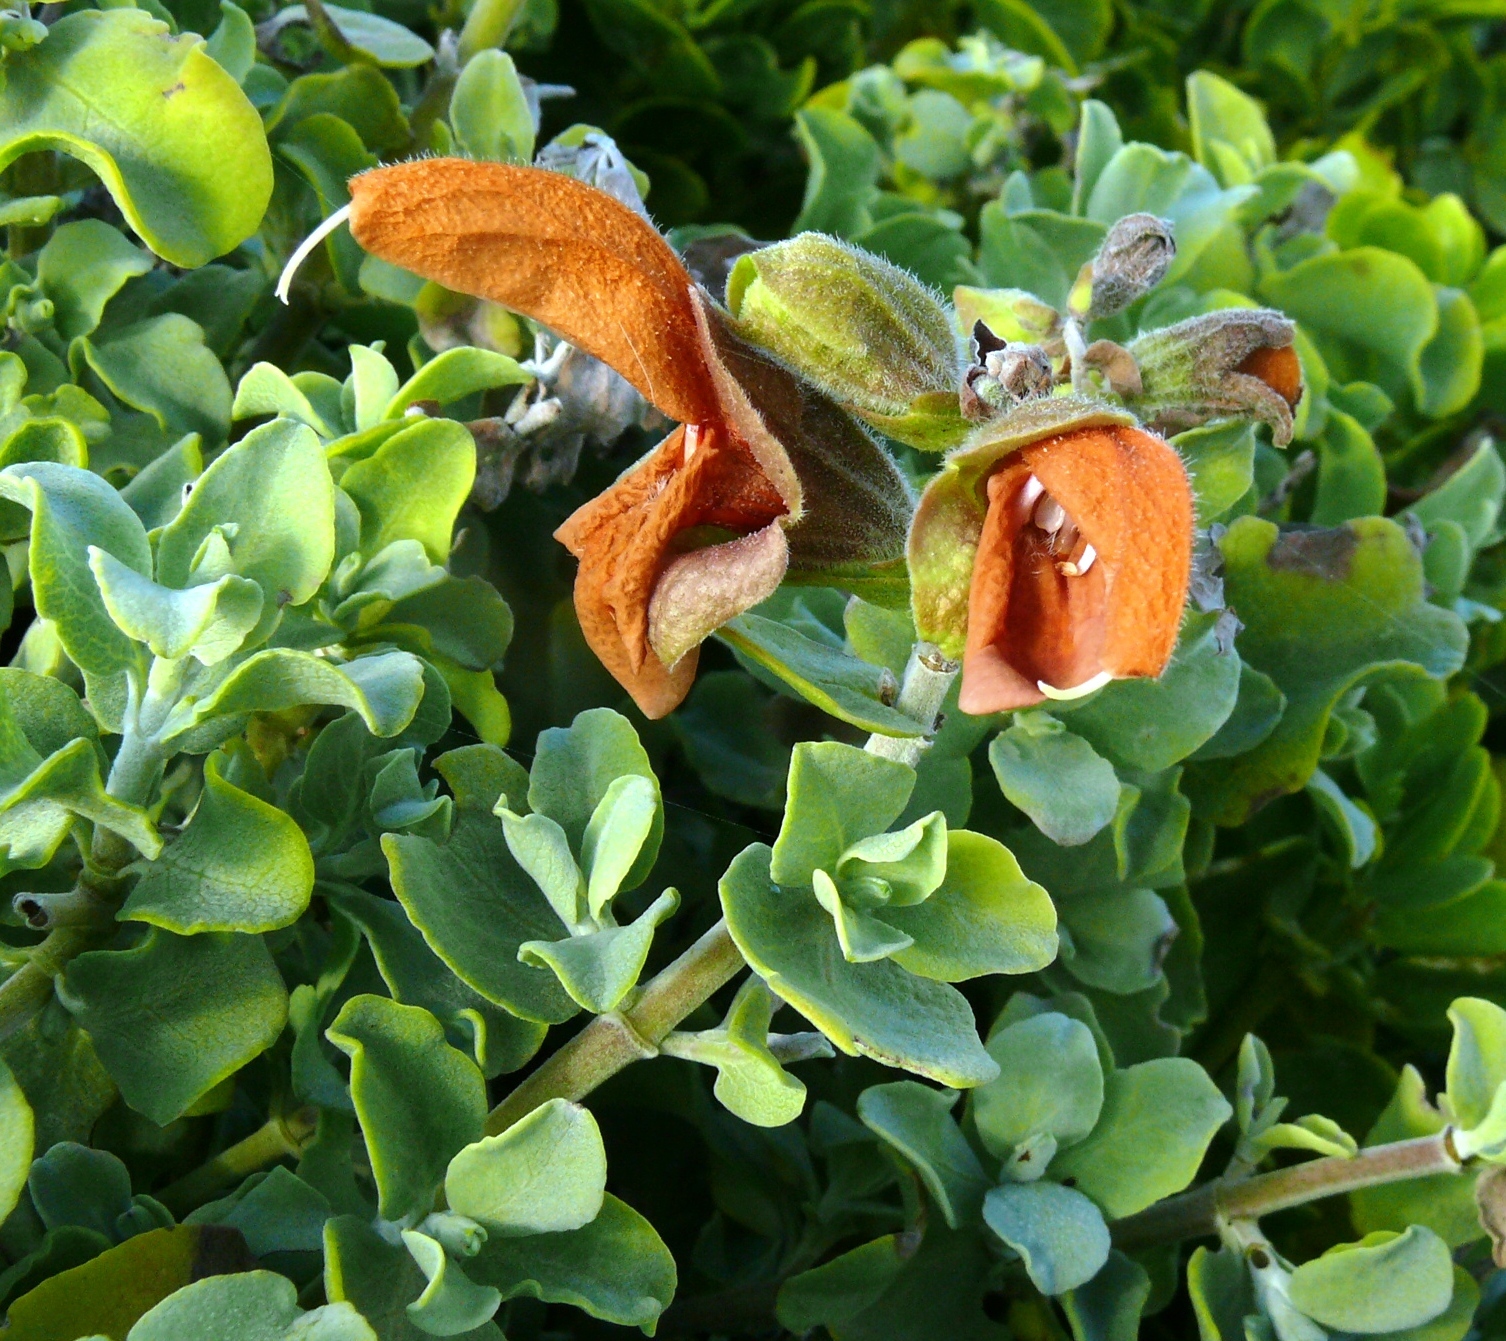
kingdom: Plantae
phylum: Tracheophyta
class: Magnoliopsida
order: Lamiales
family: Lamiaceae
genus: Salvia
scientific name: Salvia aurea
